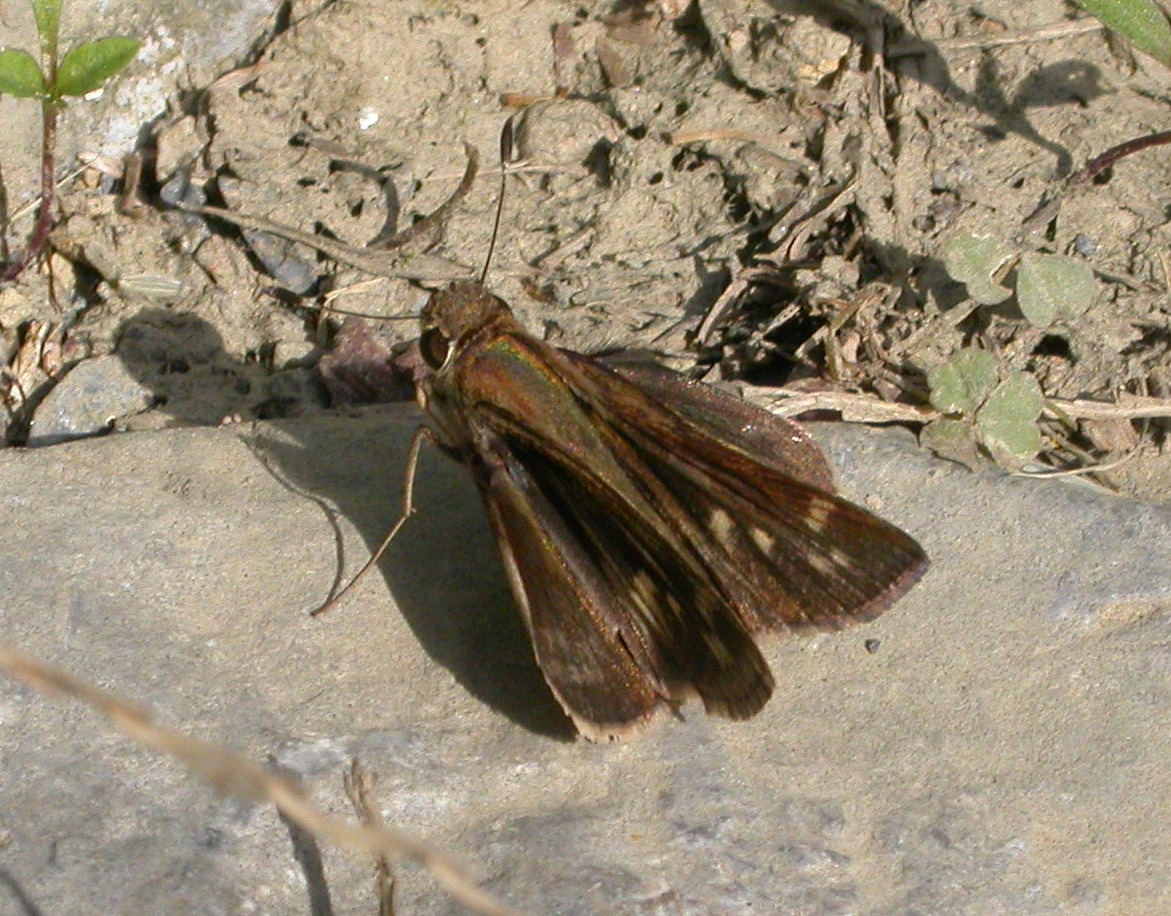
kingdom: Animalia
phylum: Arthropoda
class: Insecta
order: Lepidoptera
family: Hesperiidae
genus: Pompeius
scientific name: Pompeius pompeius
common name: Pompeius skipper
